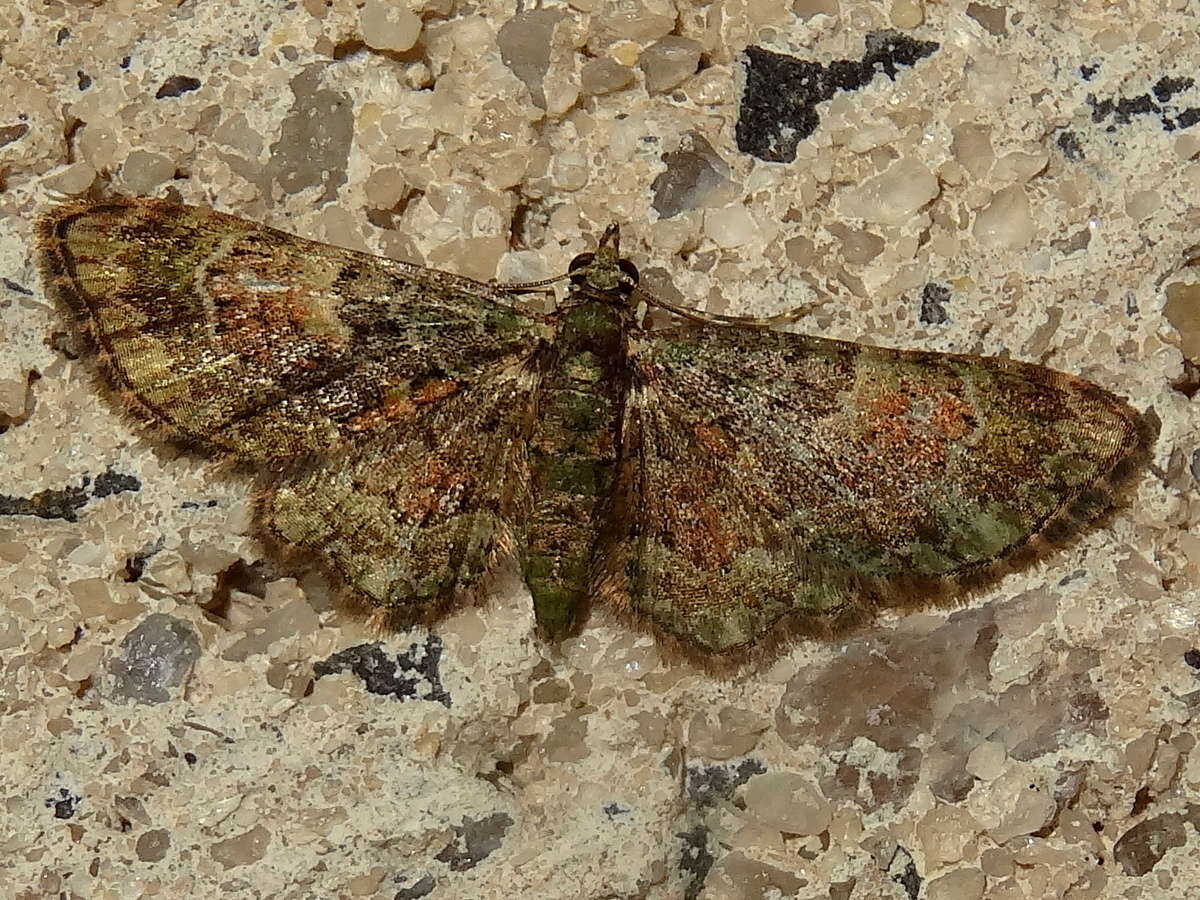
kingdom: Animalia
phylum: Arthropoda
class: Insecta
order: Lepidoptera
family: Geometridae
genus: Chloroclystis
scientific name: Chloroclystis catastreptes
